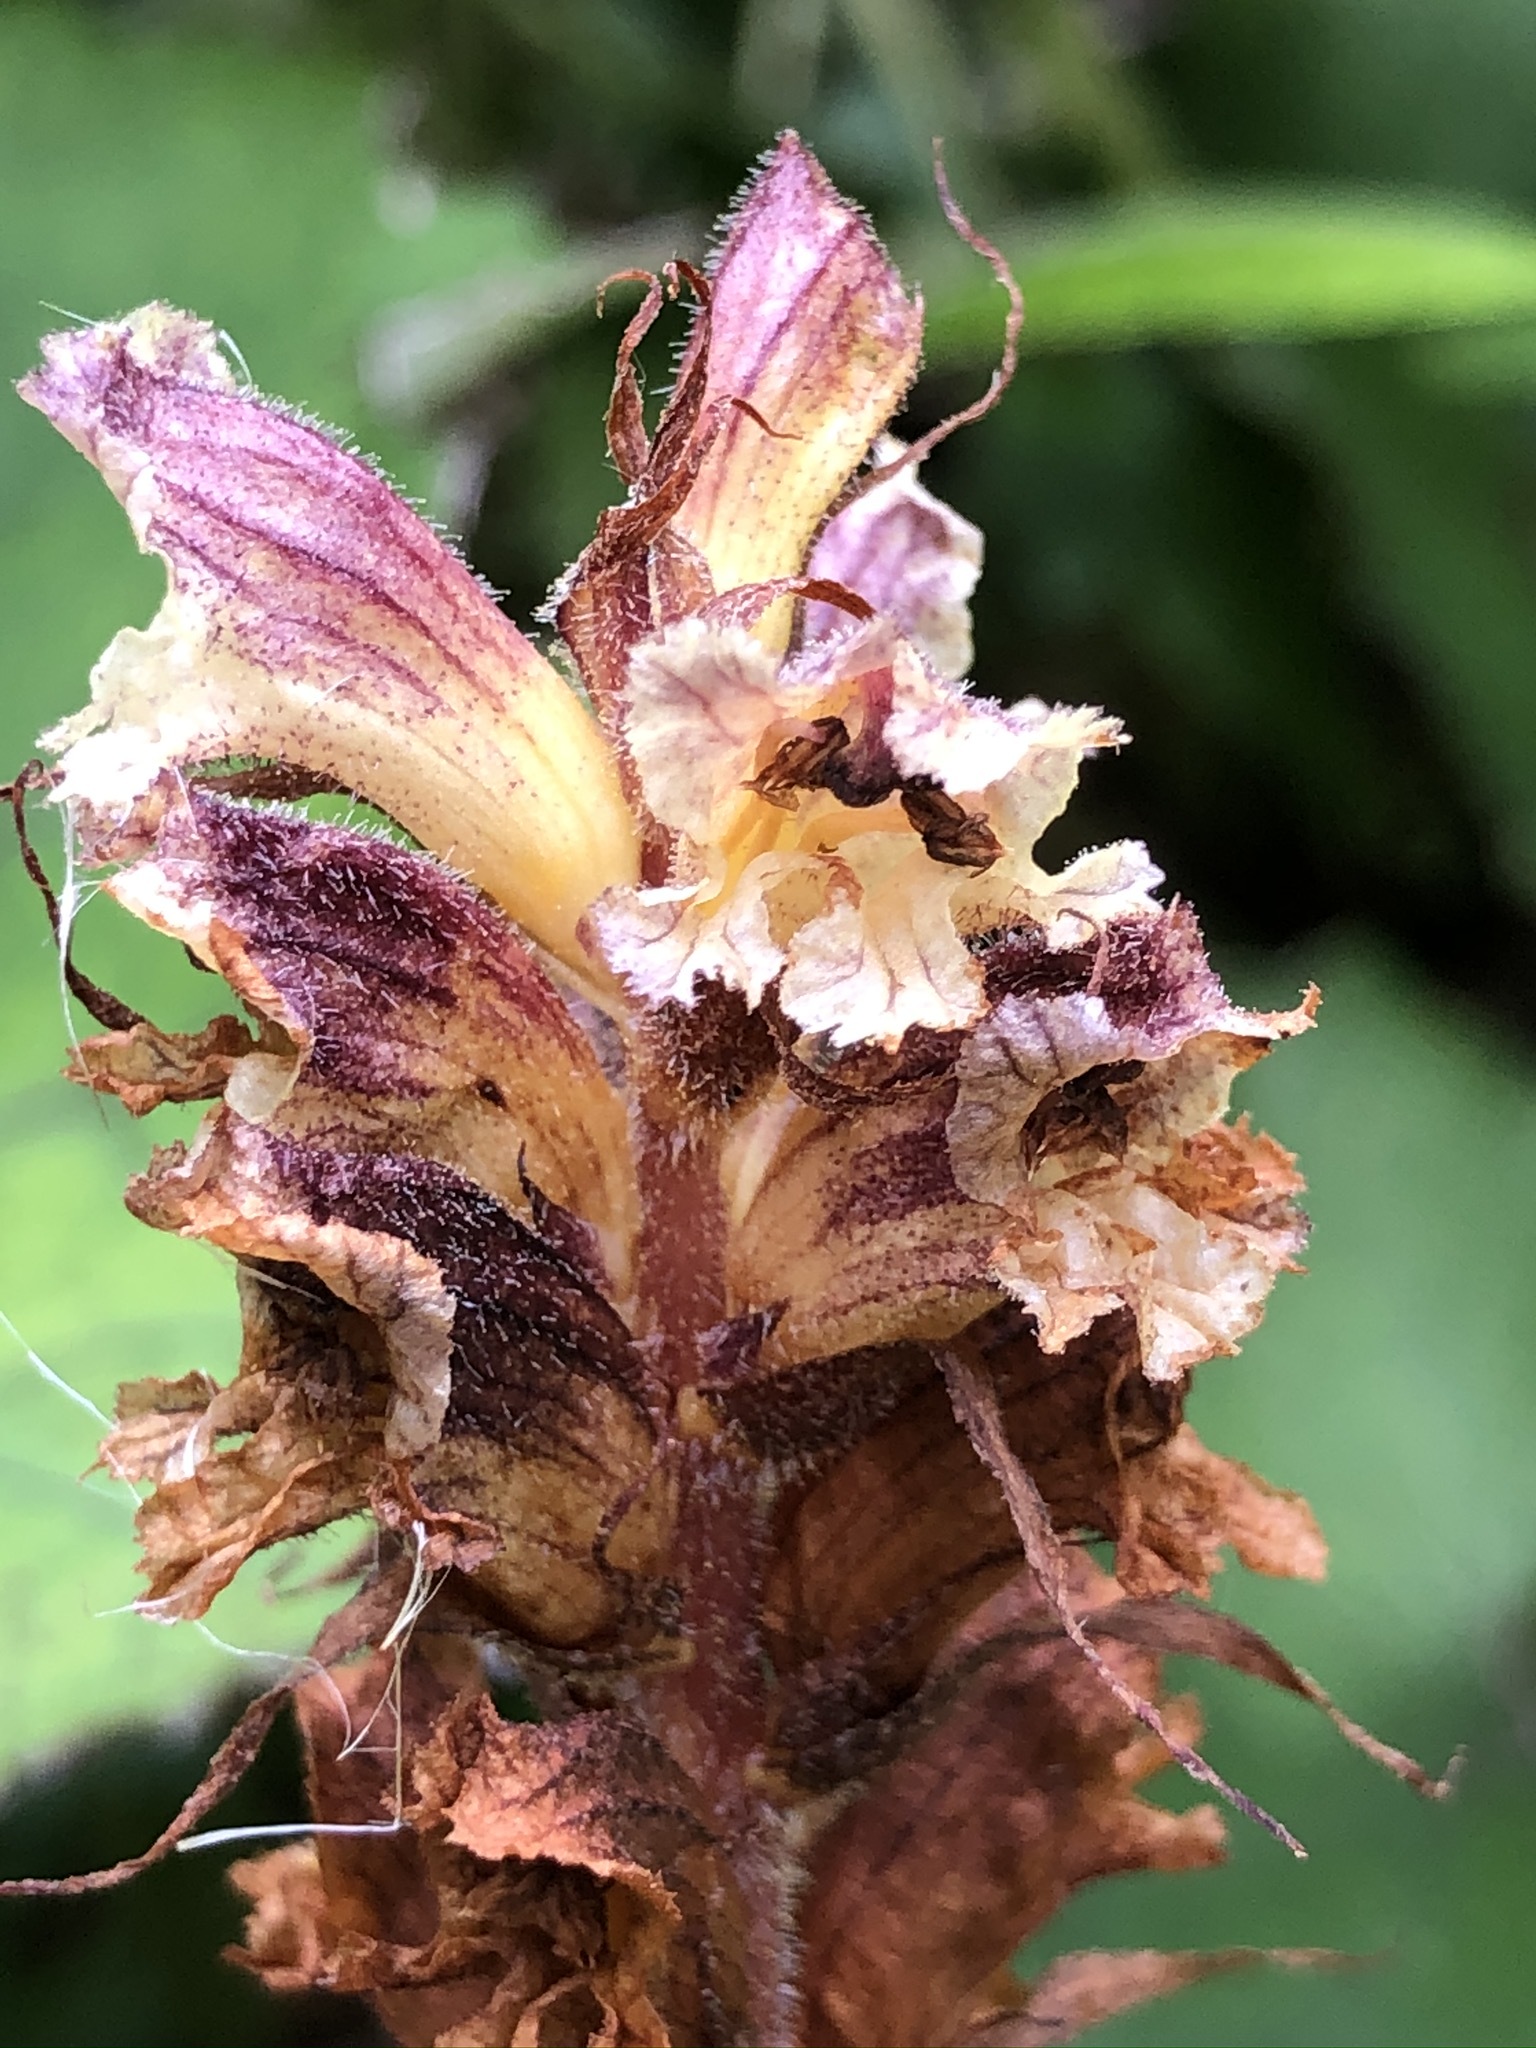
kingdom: Plantae
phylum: Tracheophyta
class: Magnoliopsida
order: Lamiales
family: Orobanchaceae
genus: Orobanche
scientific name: Orobanche reticulata
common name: Thistle broomrape
